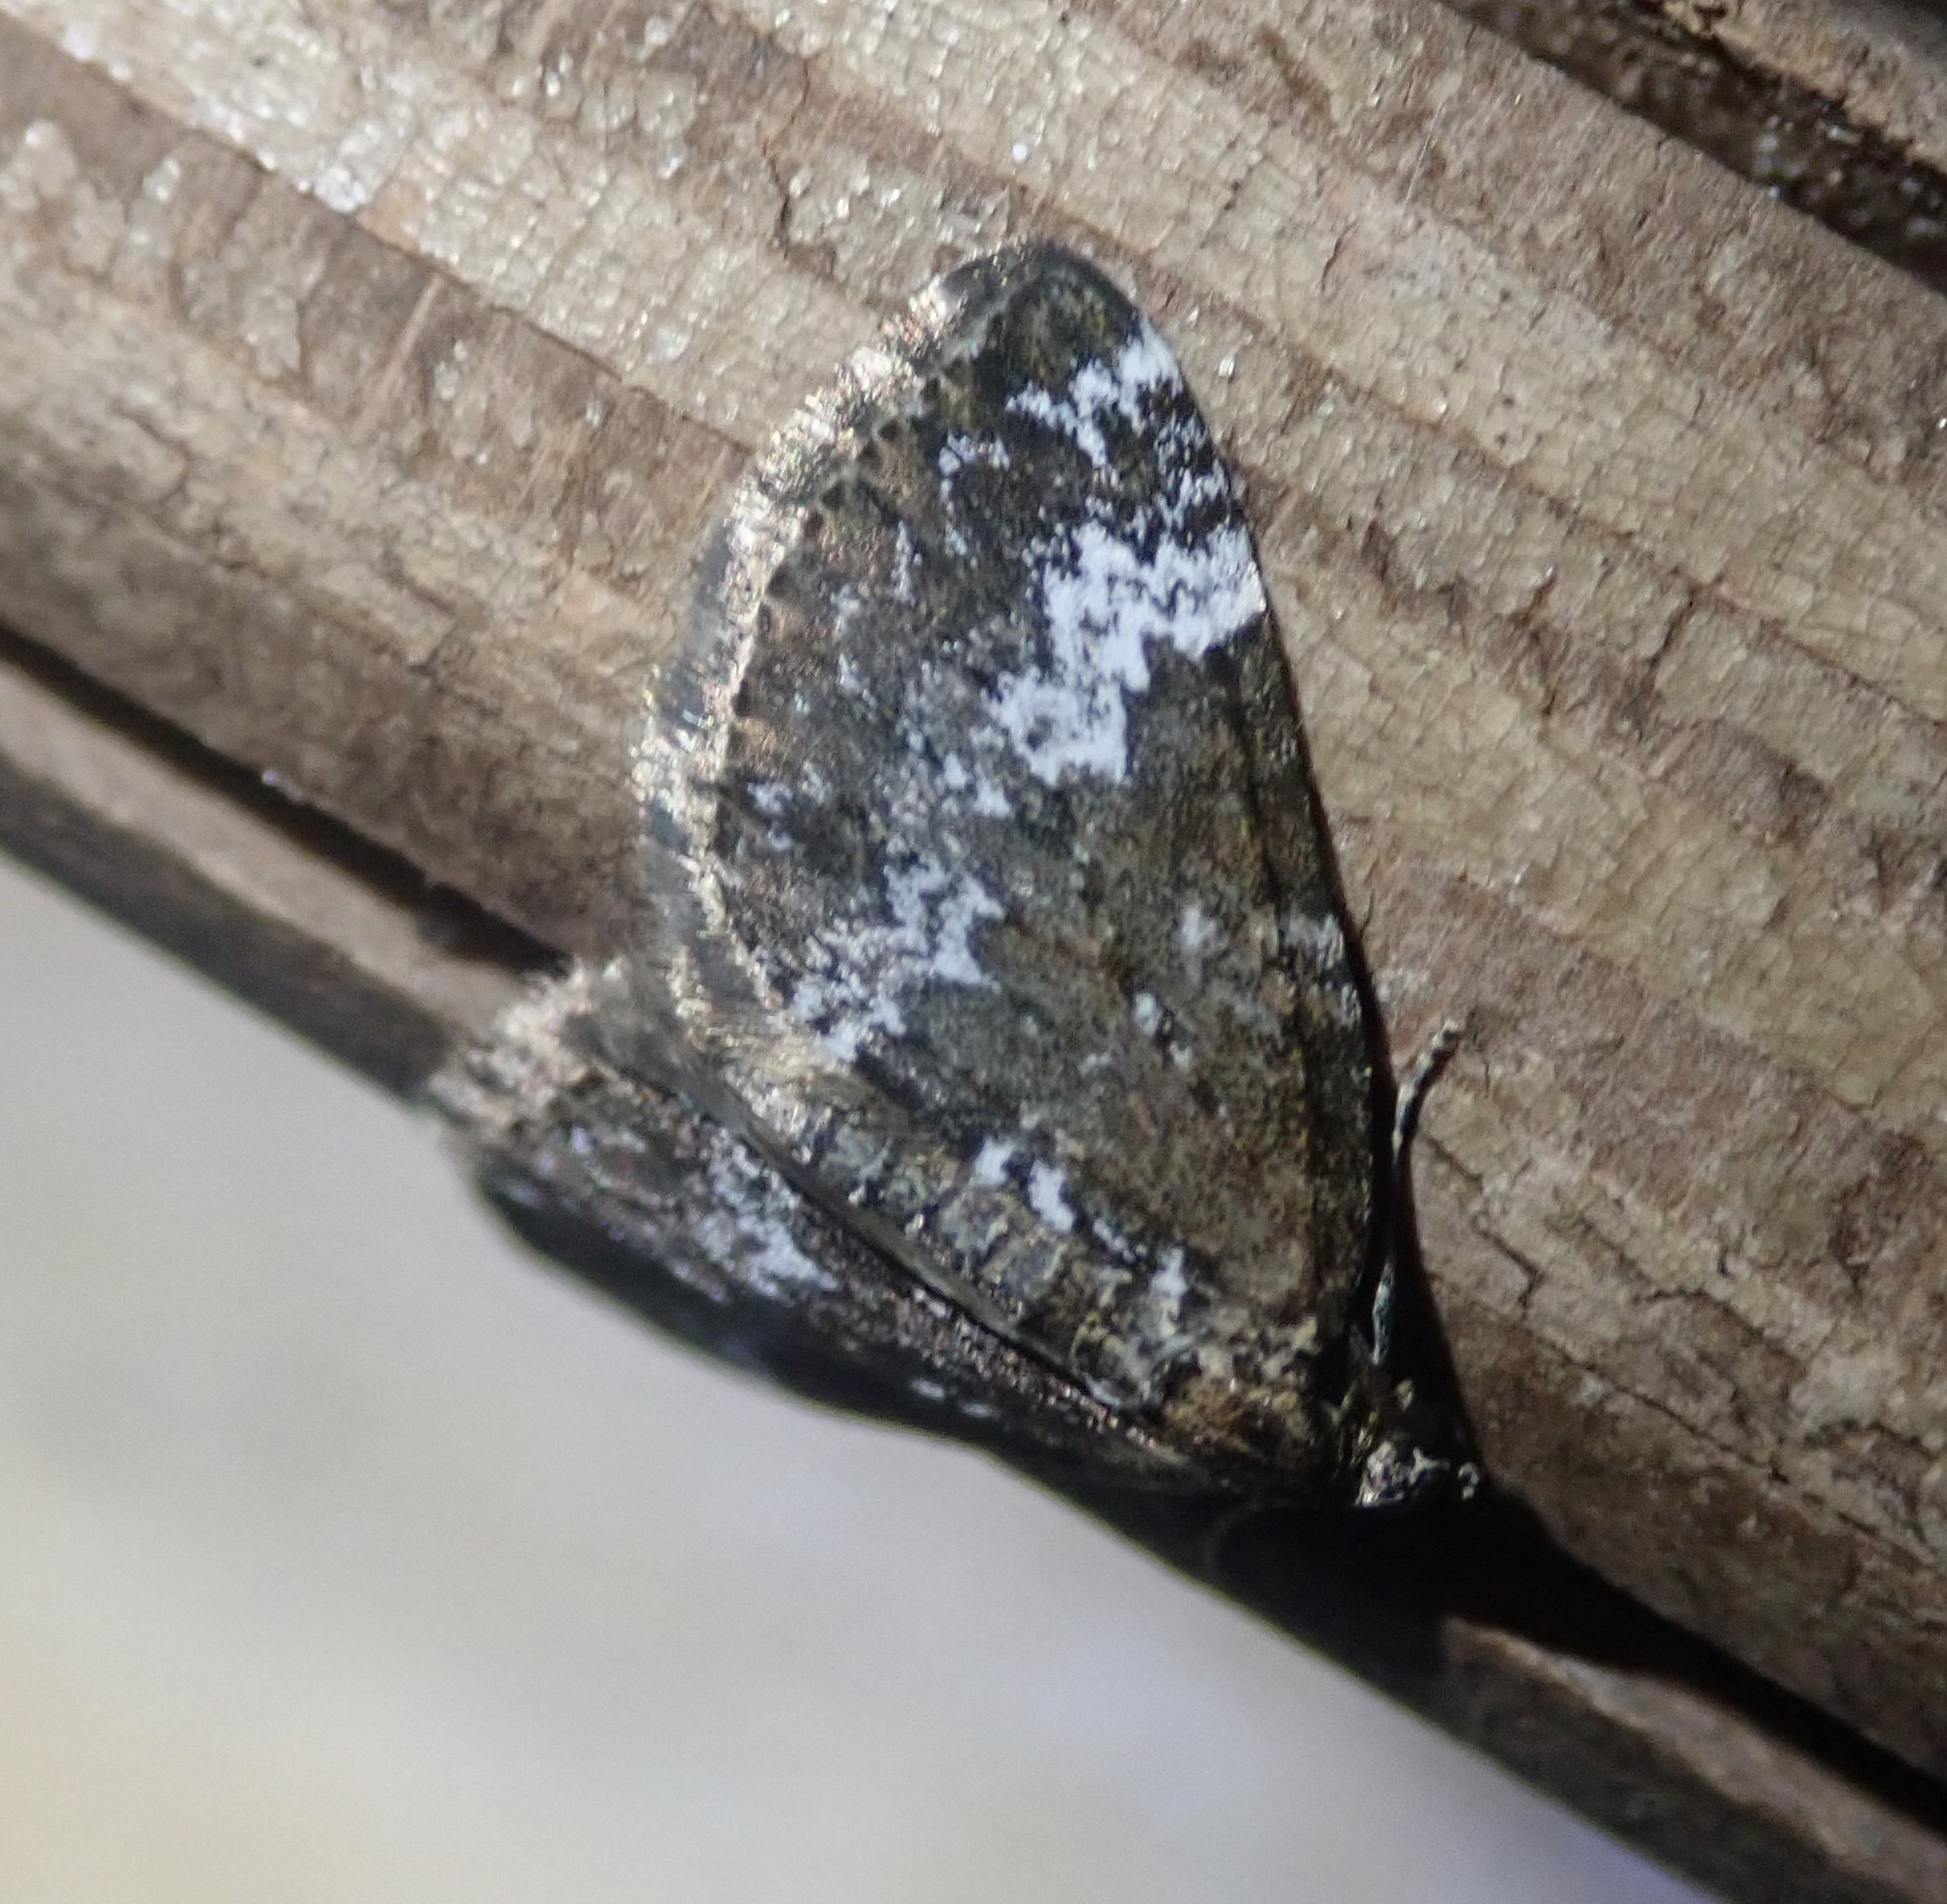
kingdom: Animalia
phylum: Arthropoda
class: Insecta
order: Lepidoptera
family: Geometridae
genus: Perizoma
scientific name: Perizoma alchemillata
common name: Small rivulet
